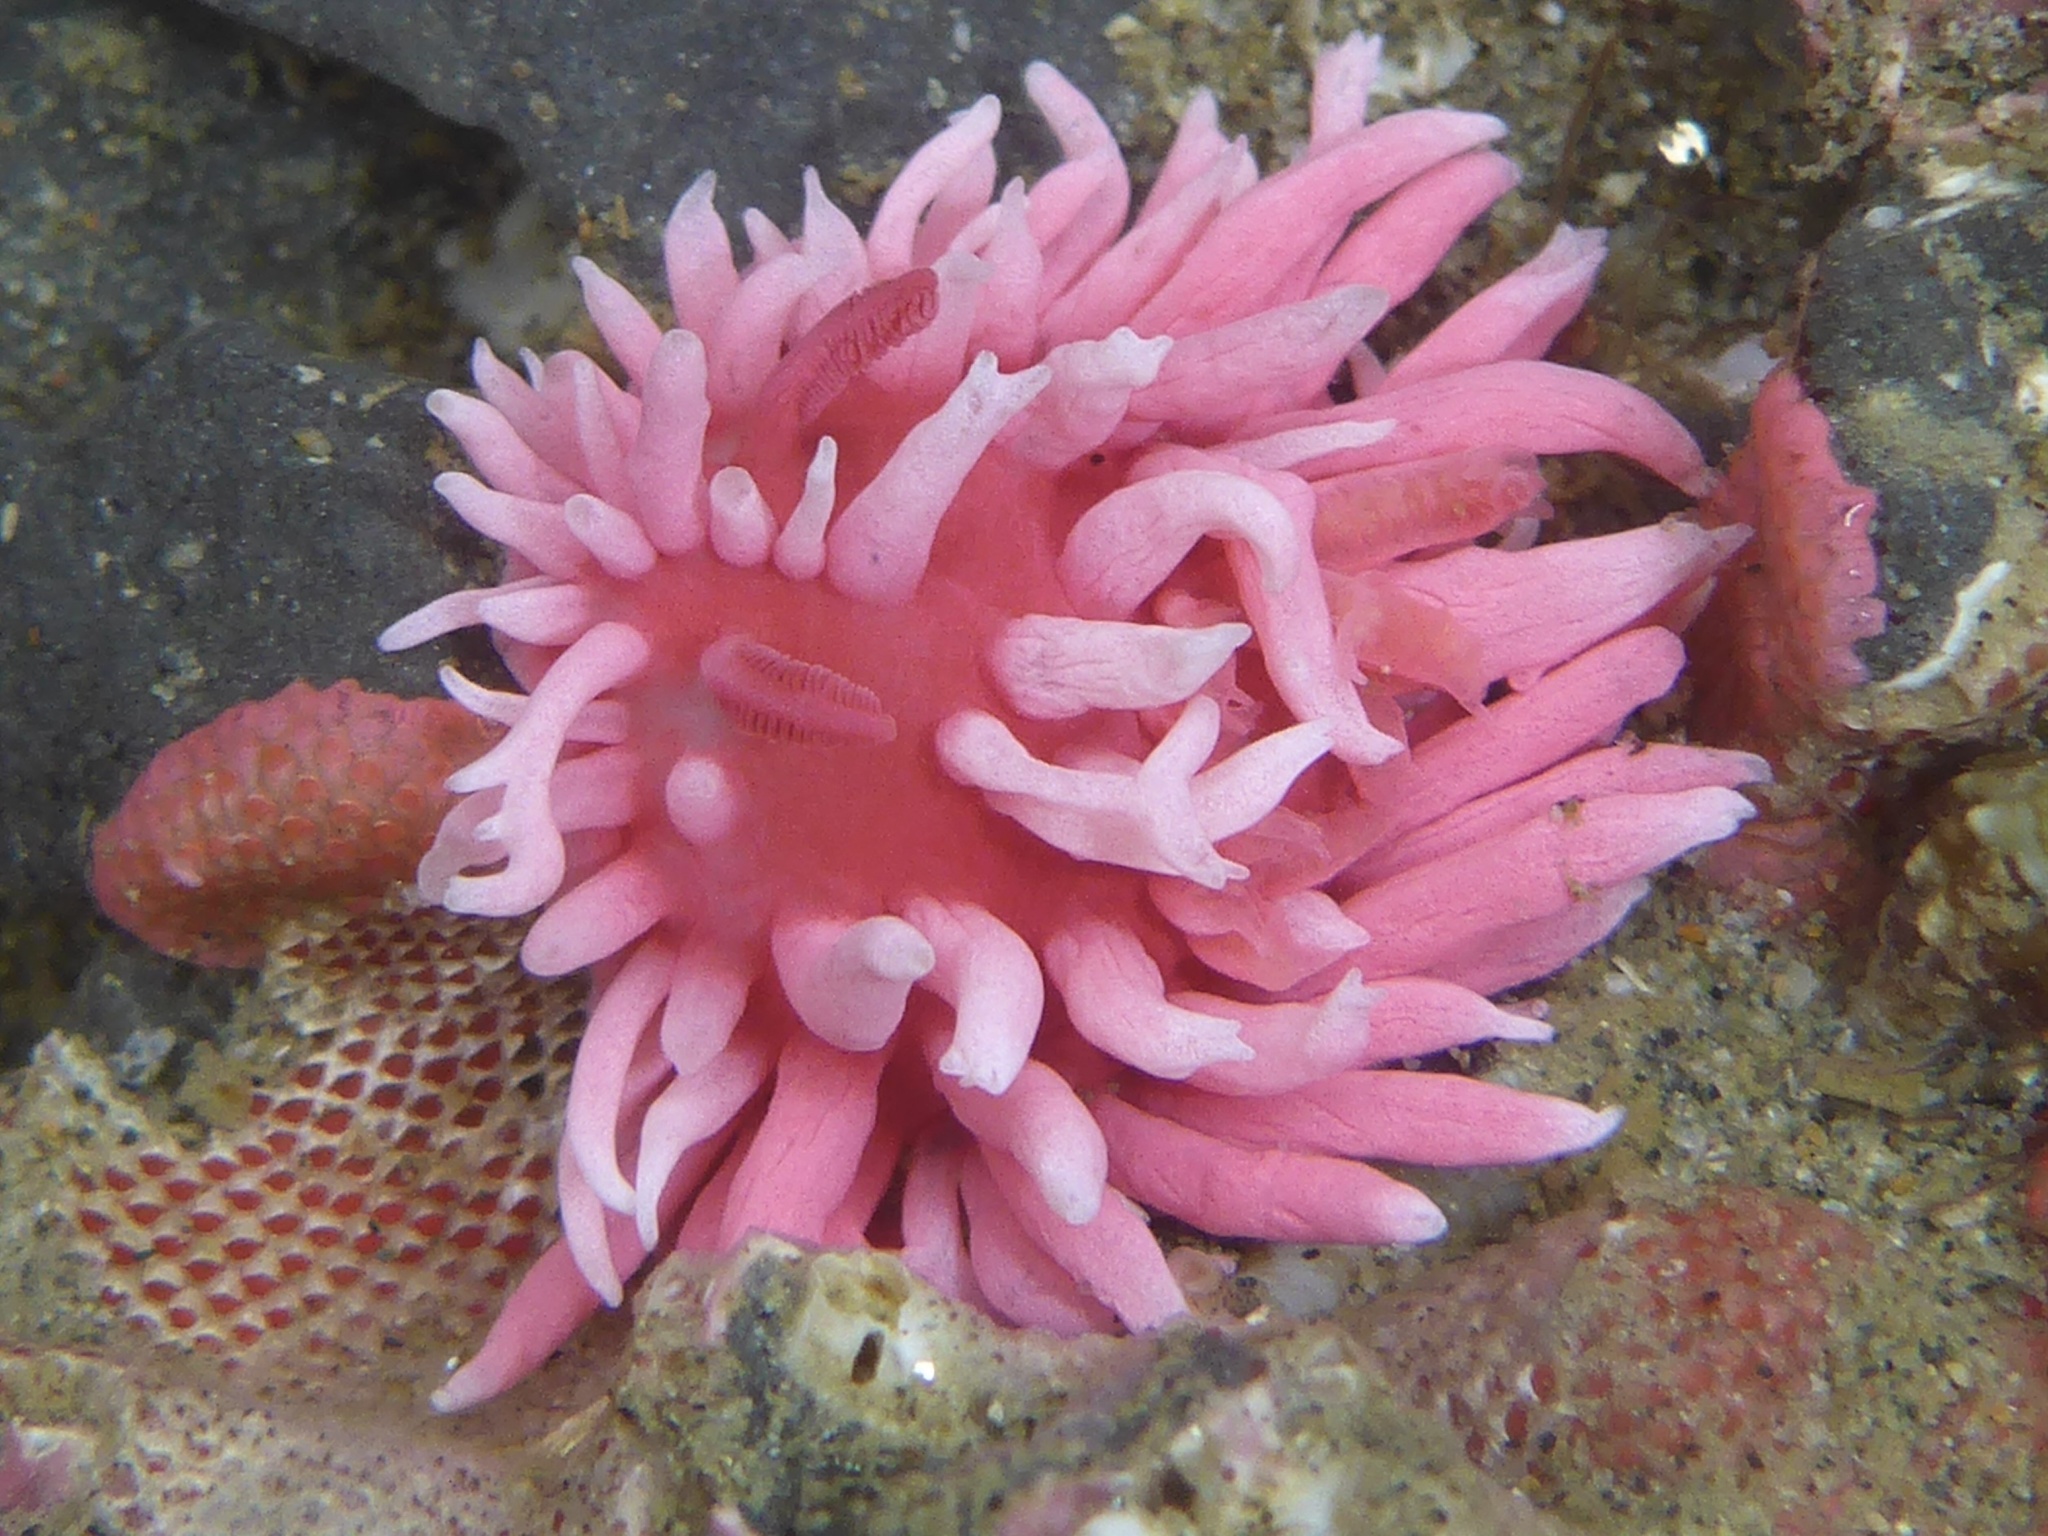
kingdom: Animalia
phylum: Mollusca
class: Gastropoda
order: Nudibranchia
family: Goniodorididae
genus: Okenia
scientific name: Okenia
